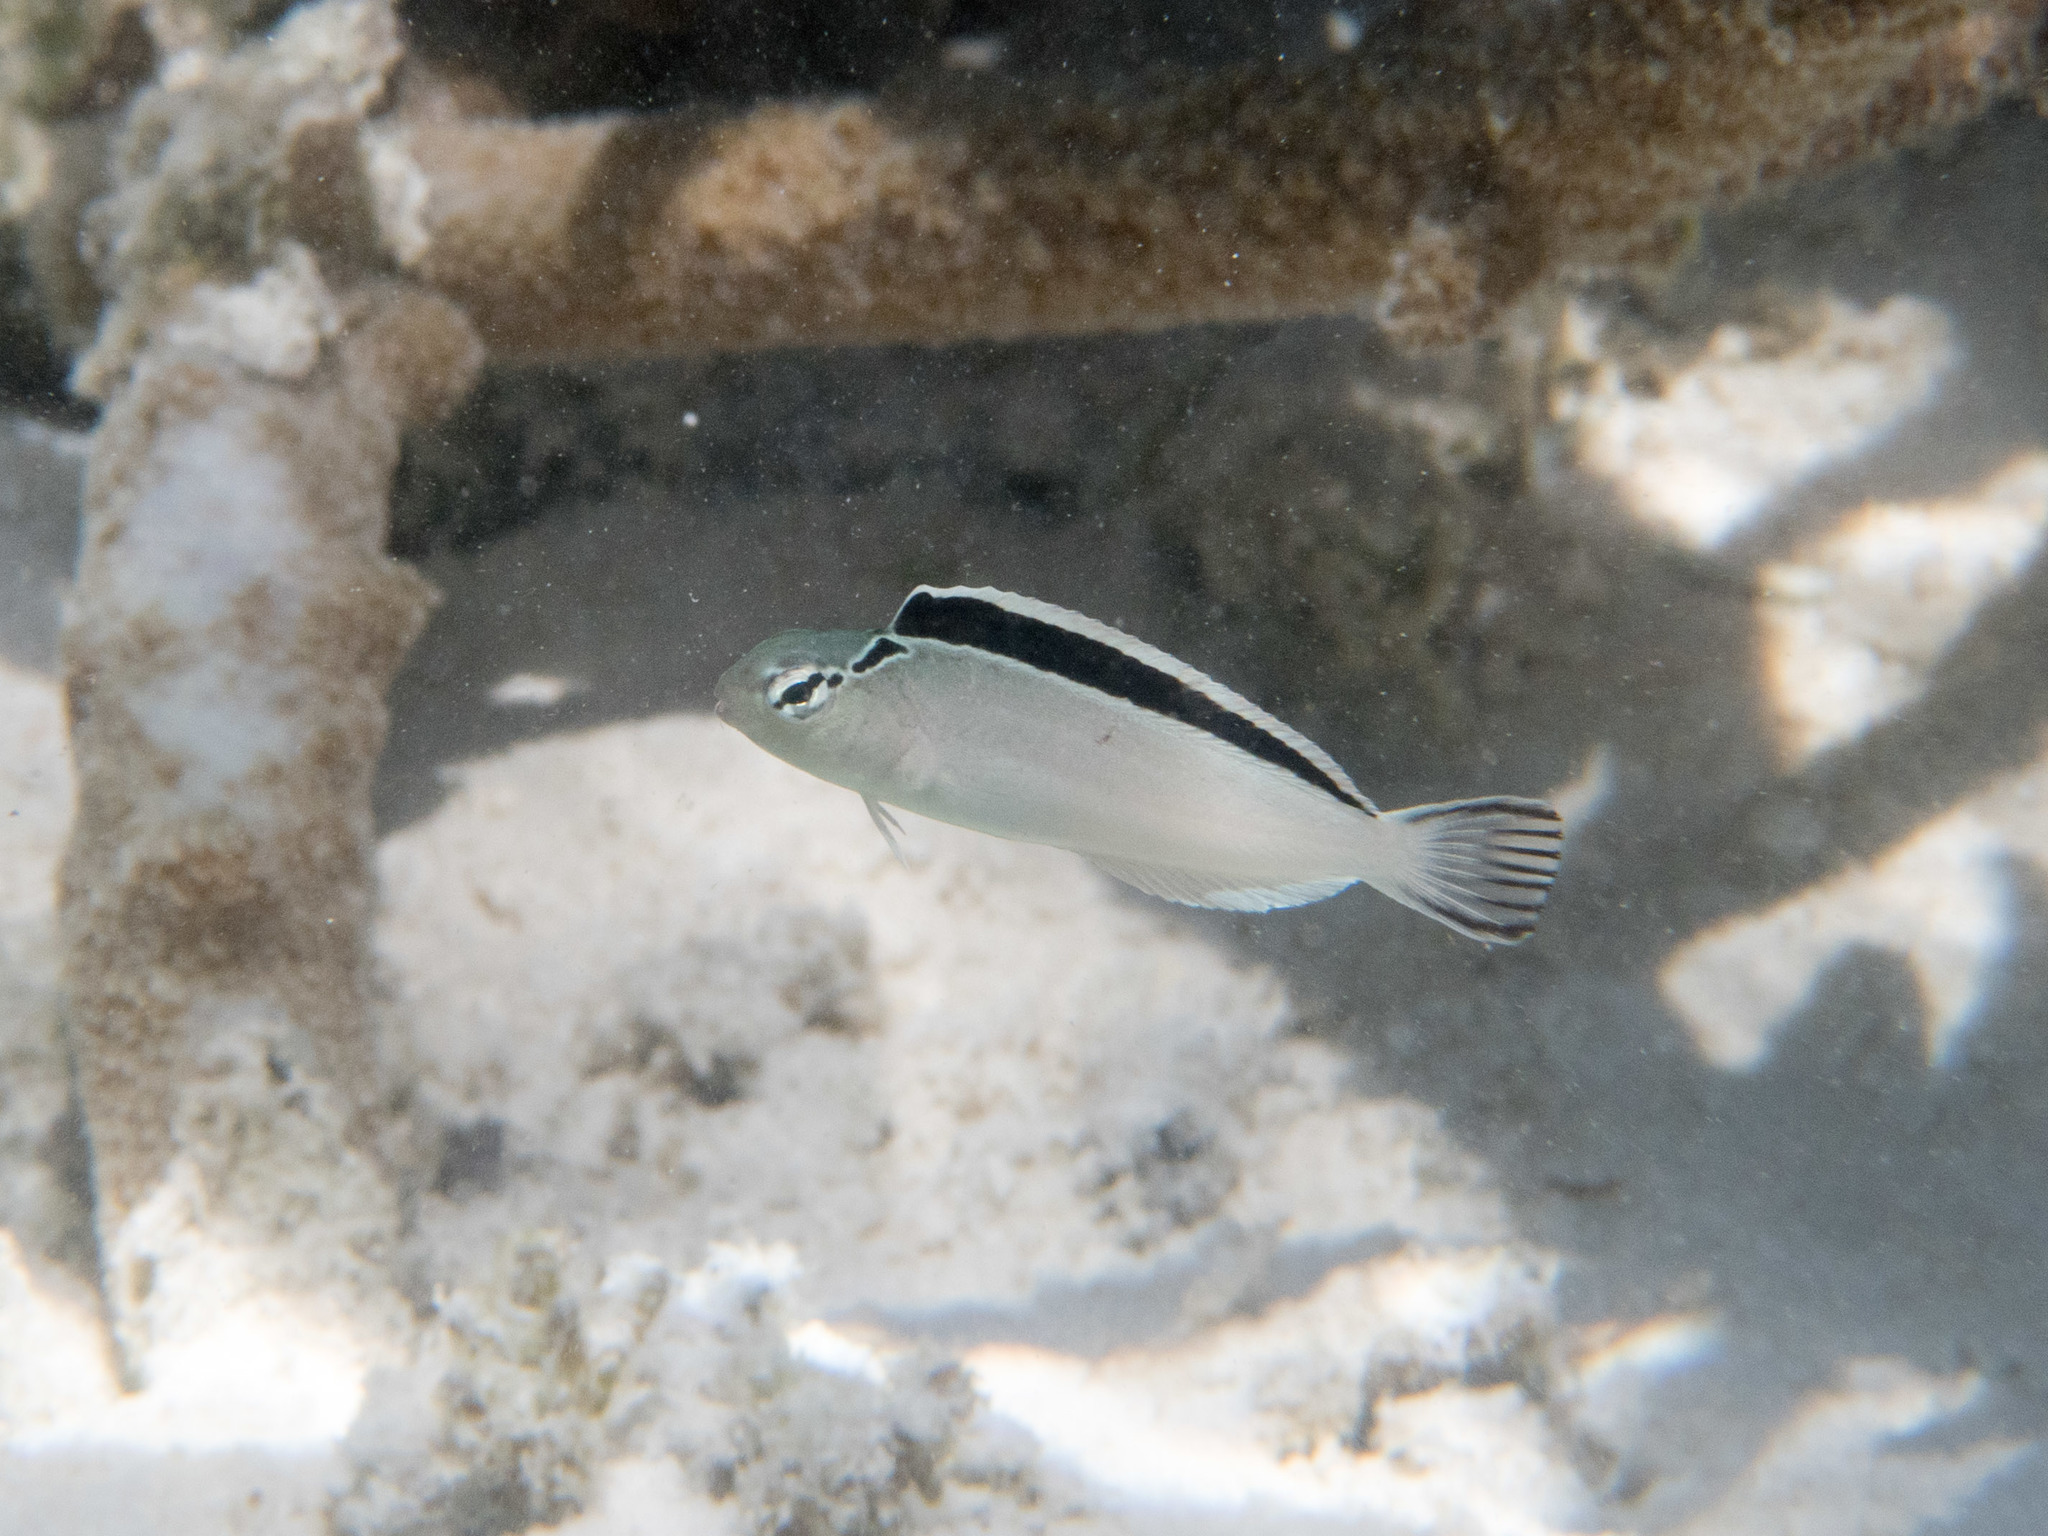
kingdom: Animalia
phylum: Chordata
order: Perciformes
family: Blenniidae
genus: Meiacanthus
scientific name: Meiacanthus smithi
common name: Disco blenny
